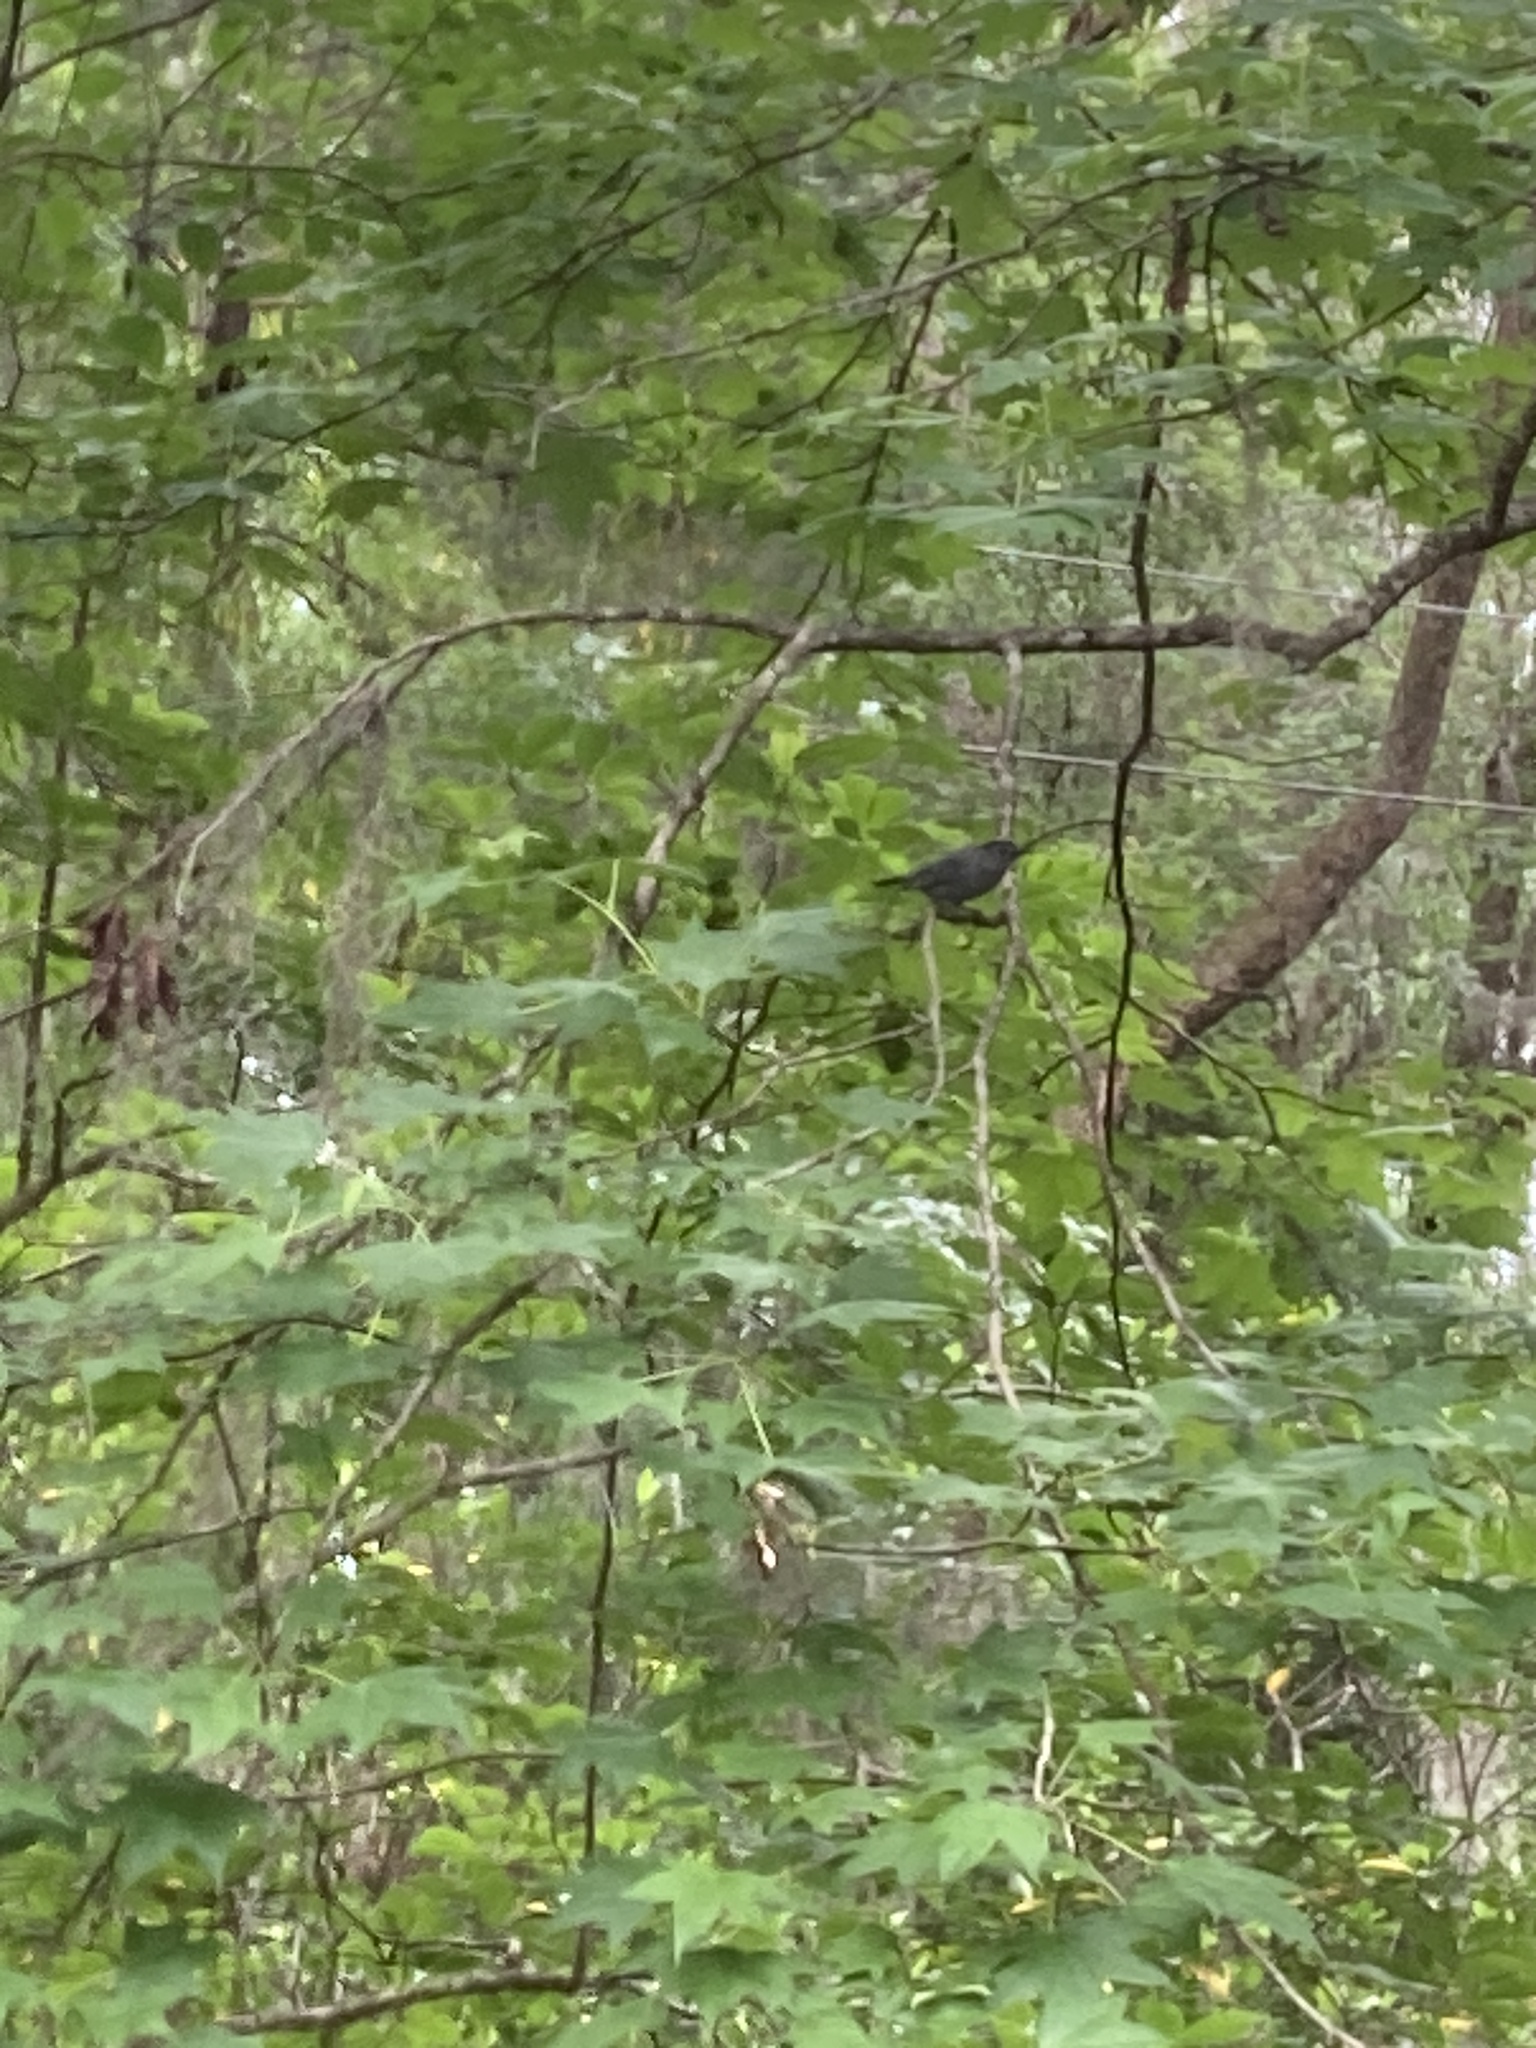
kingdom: Animalia
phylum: Chordata
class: Aves
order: Passeriformes
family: Mimidae
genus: Dumetella
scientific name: Dumetella carolinensis
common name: Gray catbird
